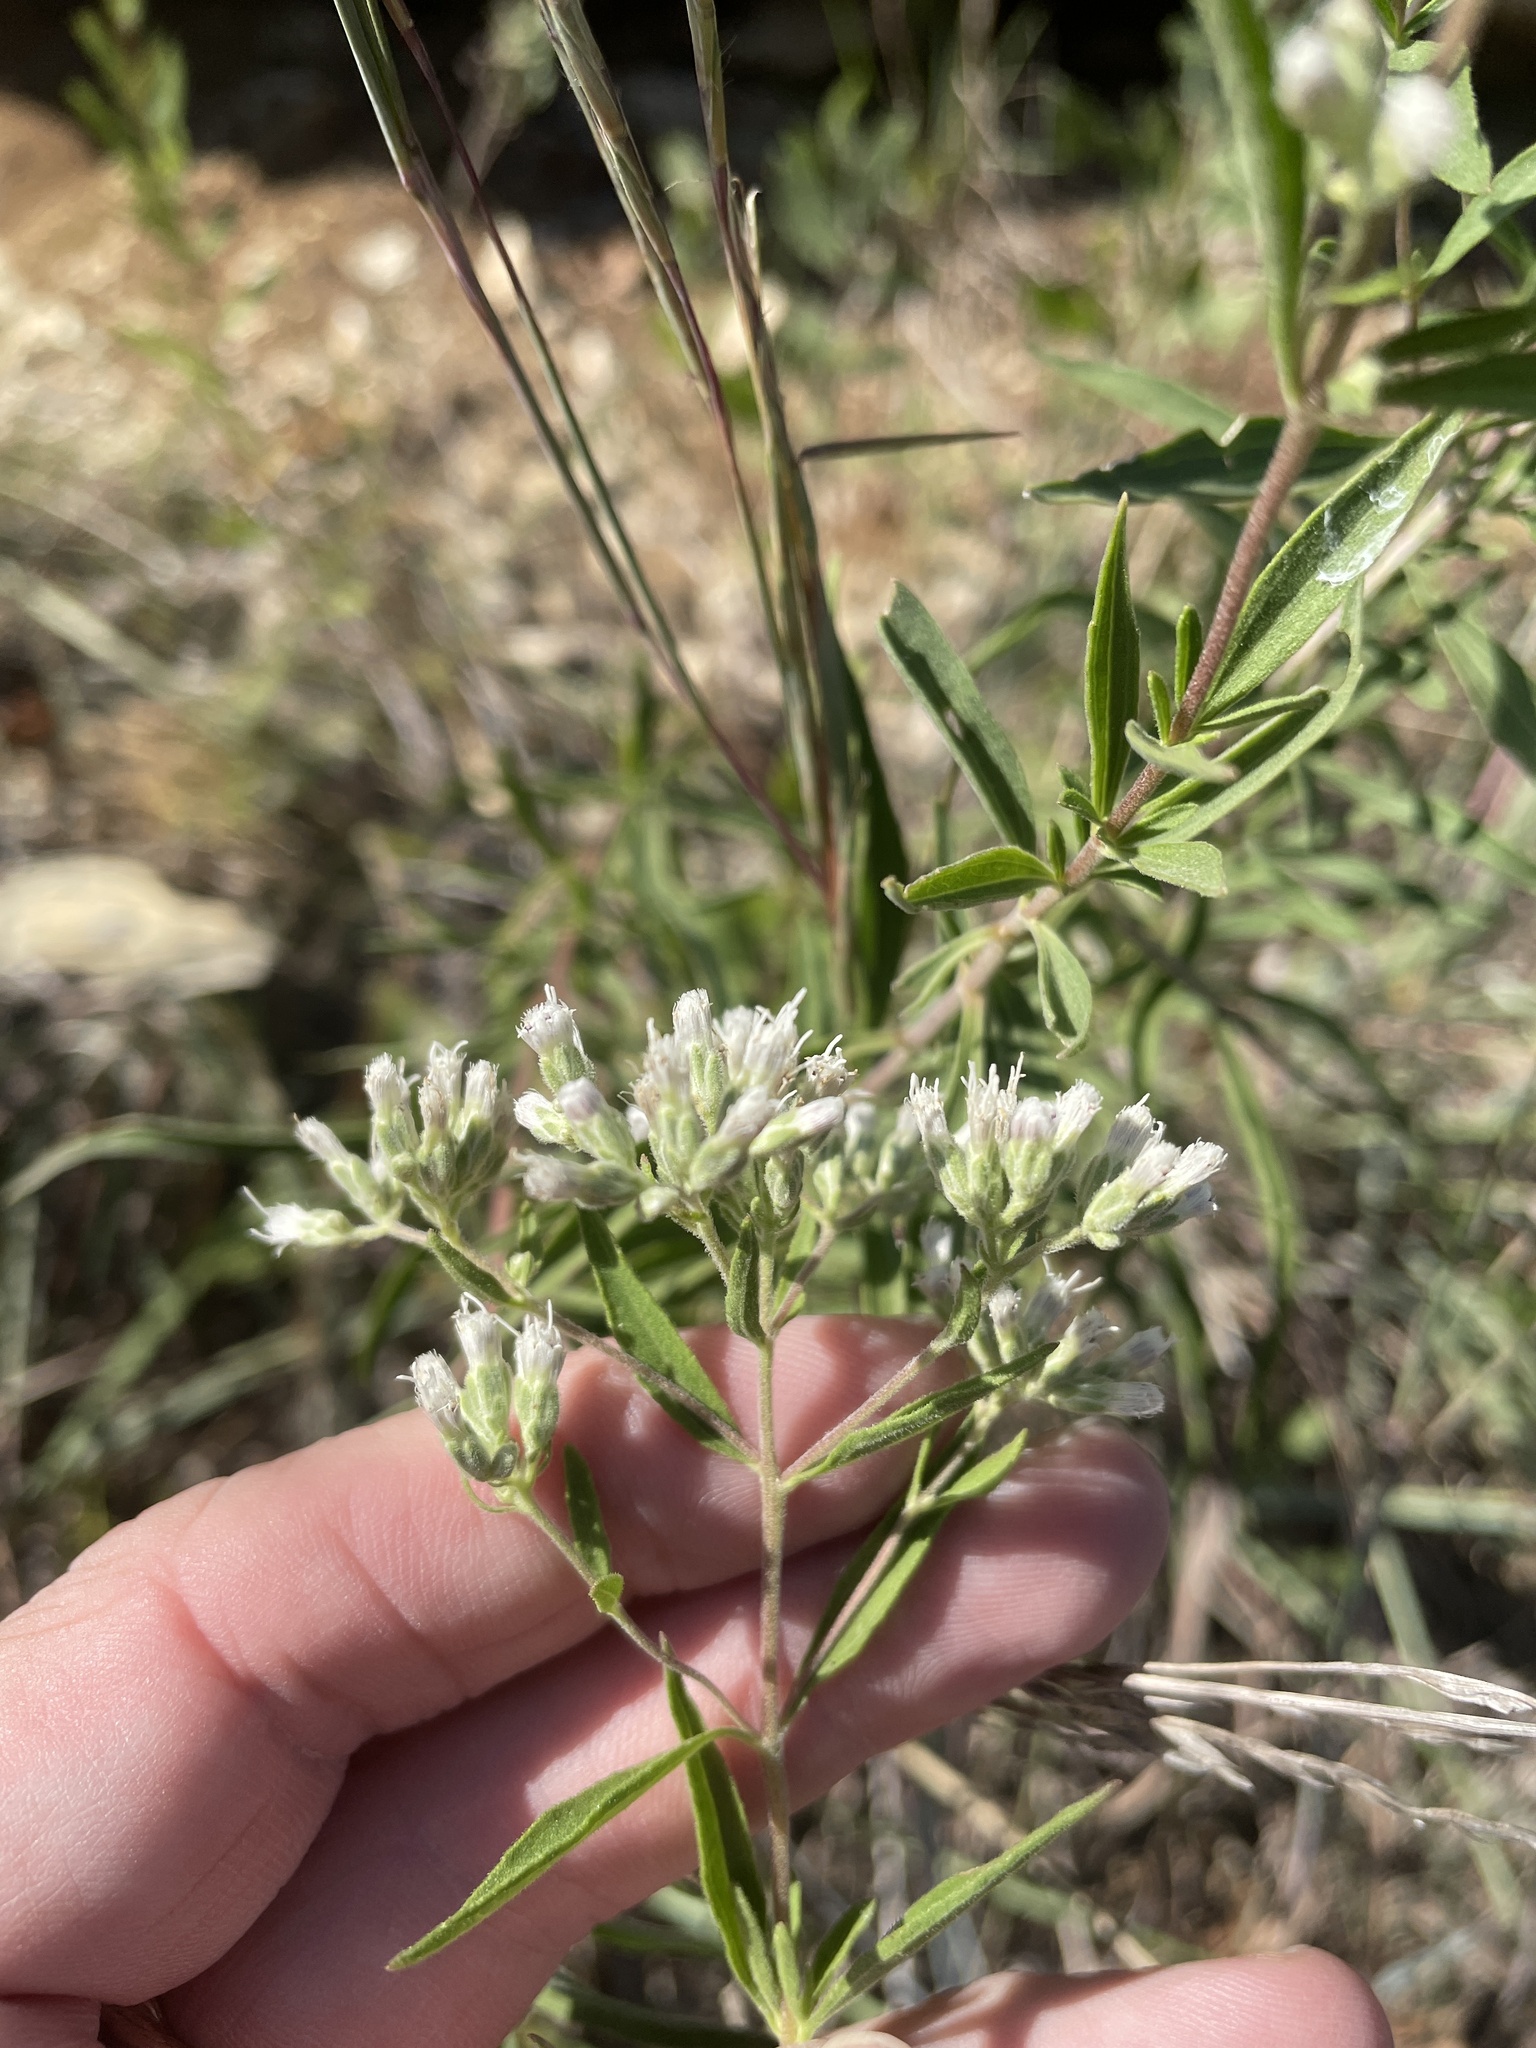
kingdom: Plantae
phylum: Tracheophyta
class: Magnoliopsida
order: Asterales
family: Asteraceae
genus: Eupatorium
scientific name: Eupatorium altissimum
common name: Tall thoroughwort
